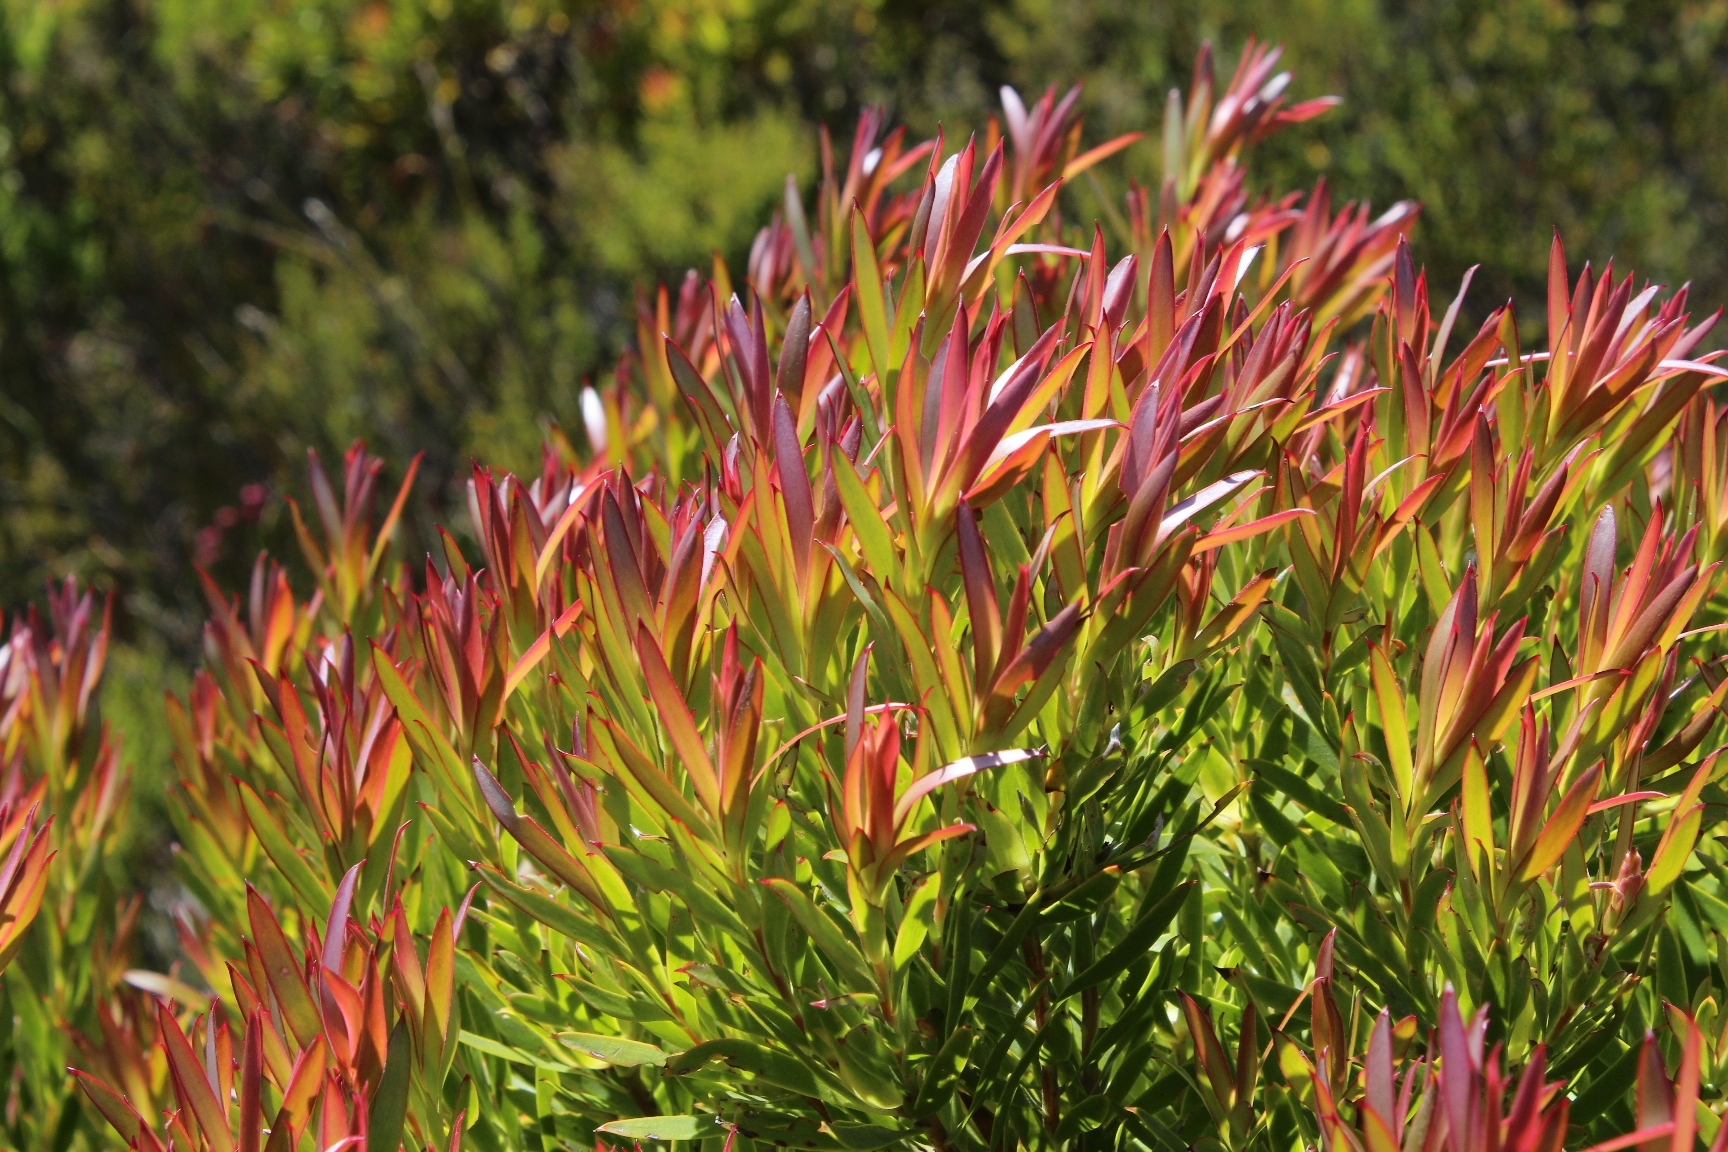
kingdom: Plantae
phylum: Tracheophyta
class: Magnoliopsida
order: Proteales
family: Proteaceae
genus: Leucadendron
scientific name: Leucadendron xanthoconus
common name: Sickle-leaf conebush
